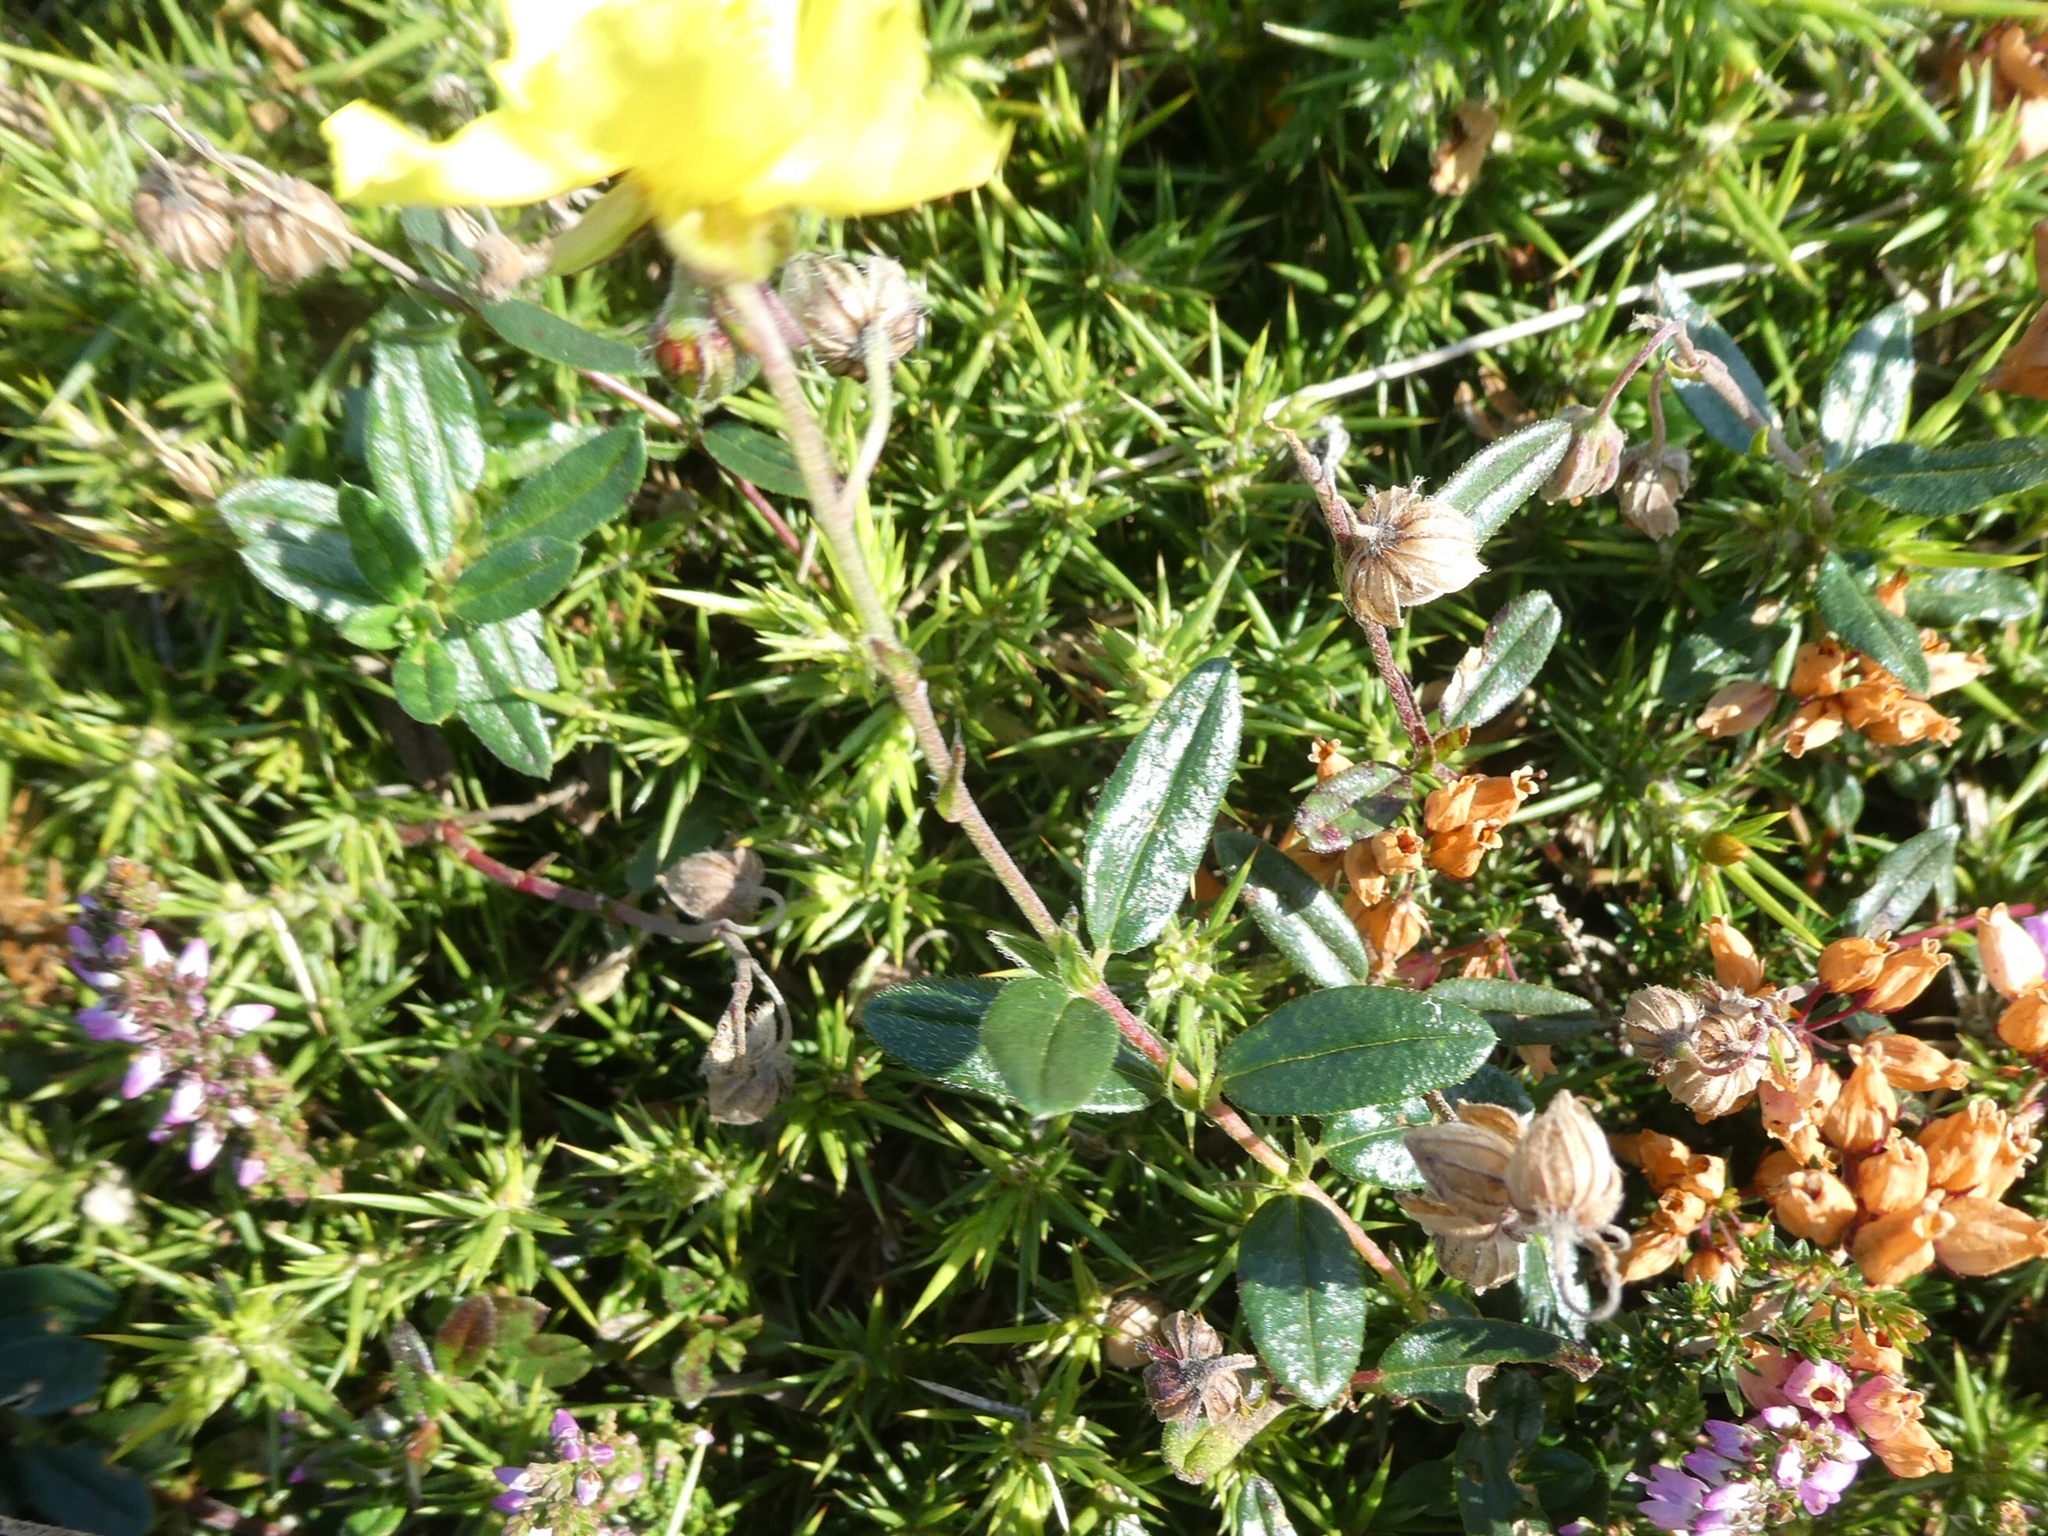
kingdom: Plantae
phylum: Tracheophyta
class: Magnoliopsida
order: Malvales
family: Cistaceae
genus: Helianthemum
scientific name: Helianthemum nummularium
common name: Common rock-rose
